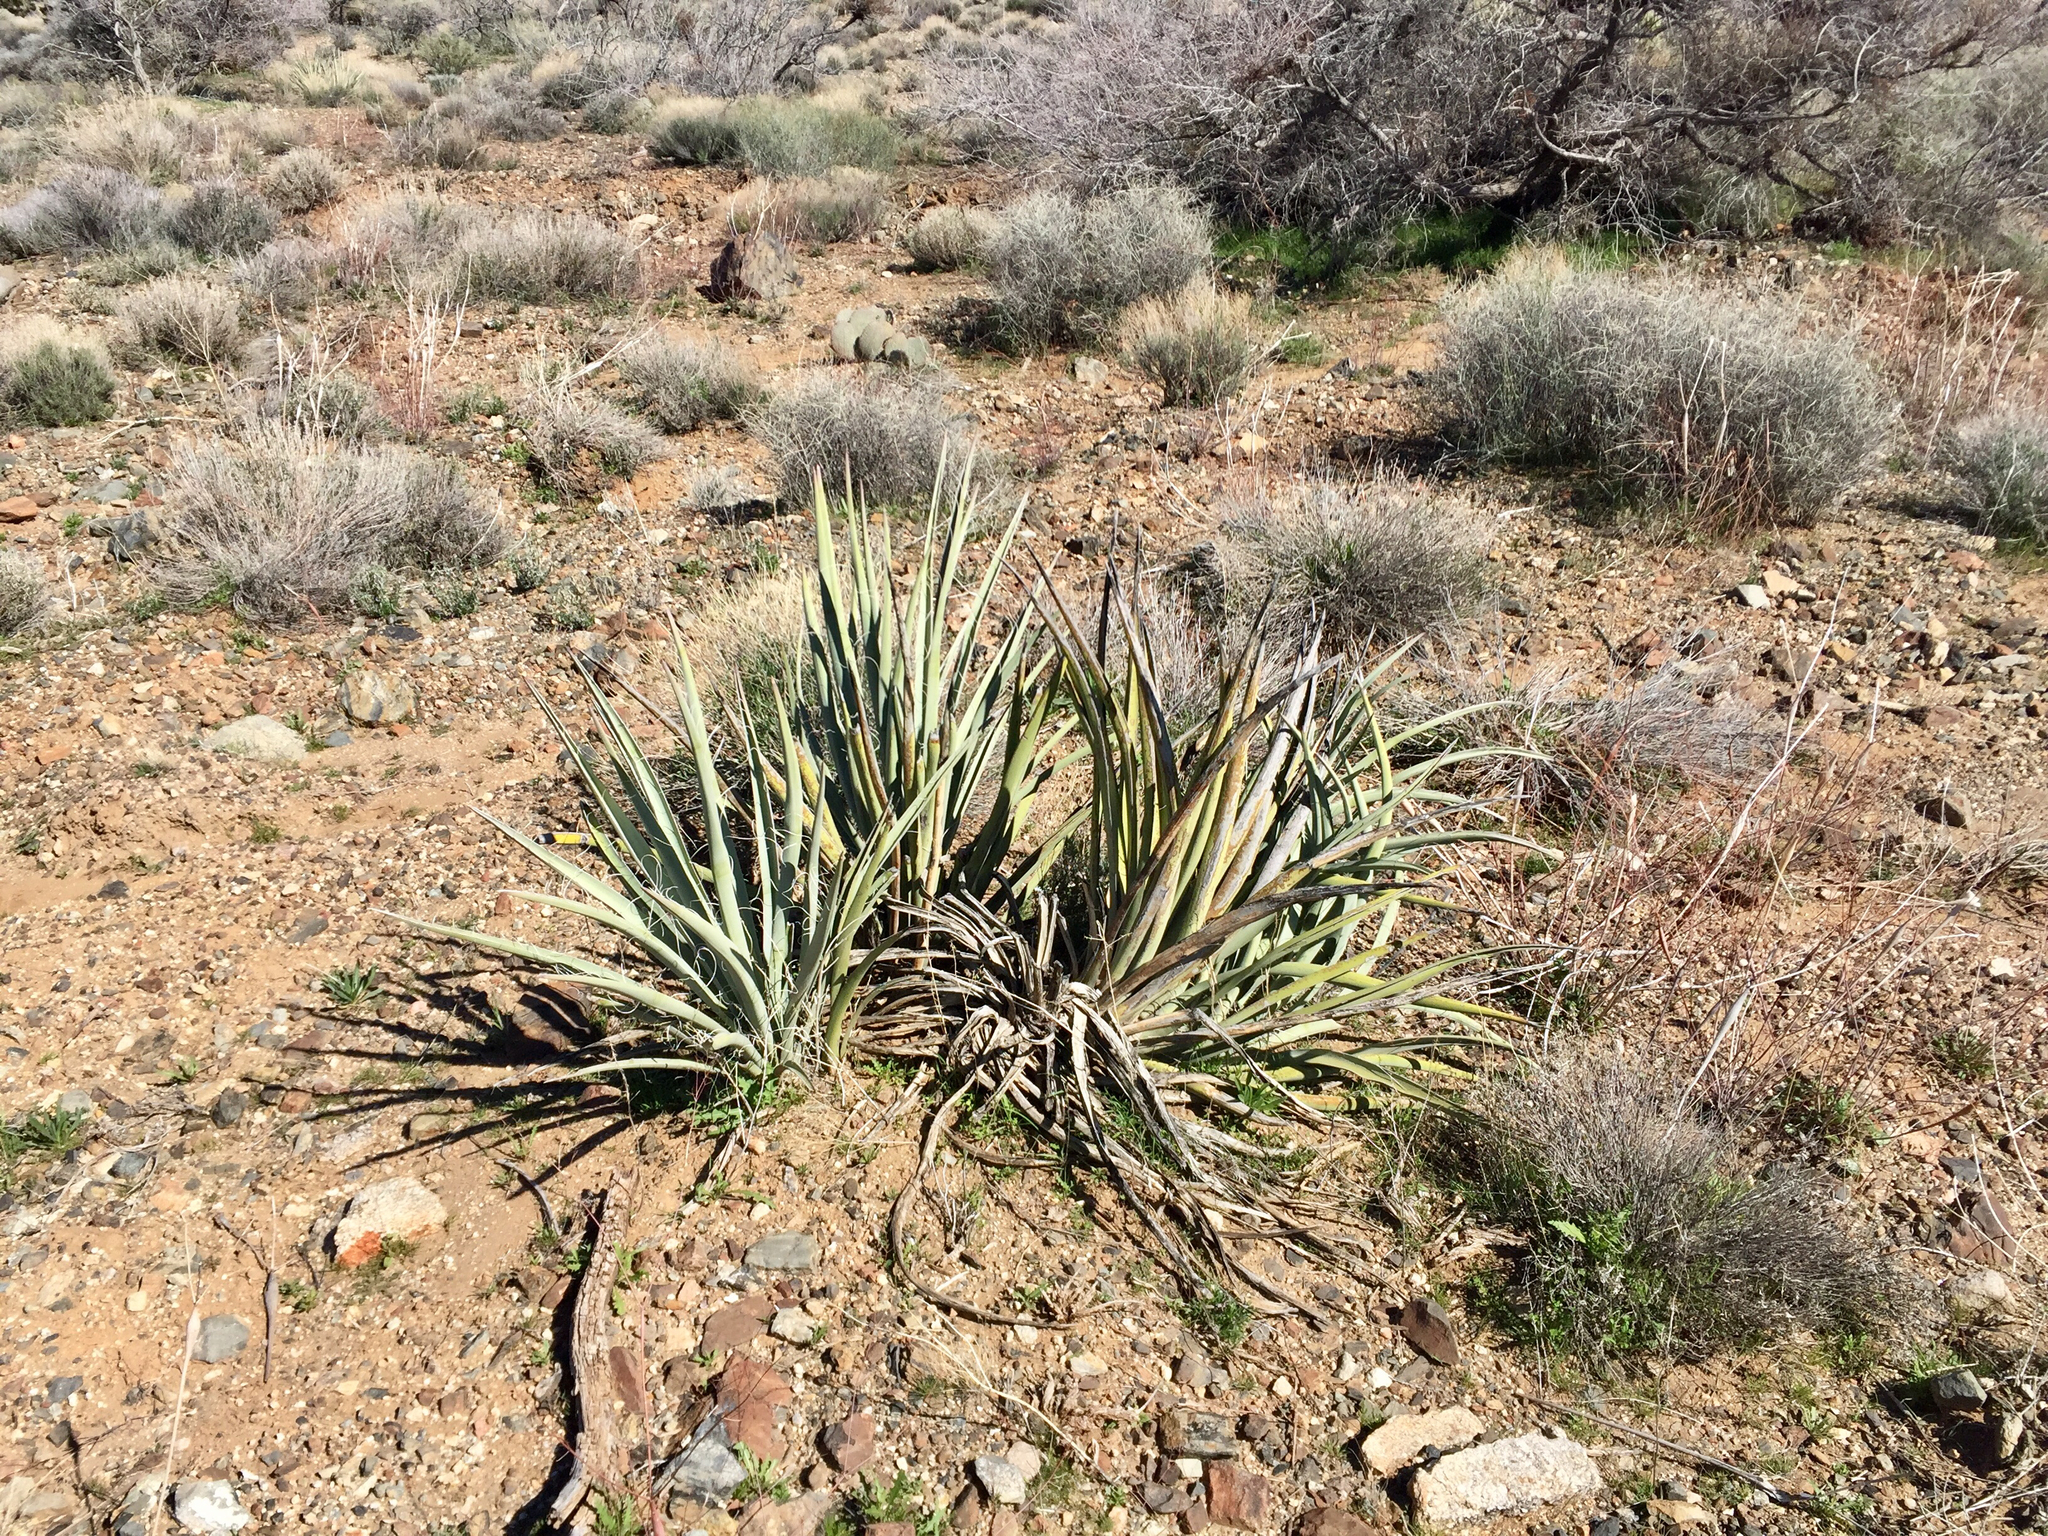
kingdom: Plantae
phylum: Tracheophyta
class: Liliopsida
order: Asparagales
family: Asparagaceae
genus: Yucca
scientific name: Yucca baccata
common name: Banana yucca
